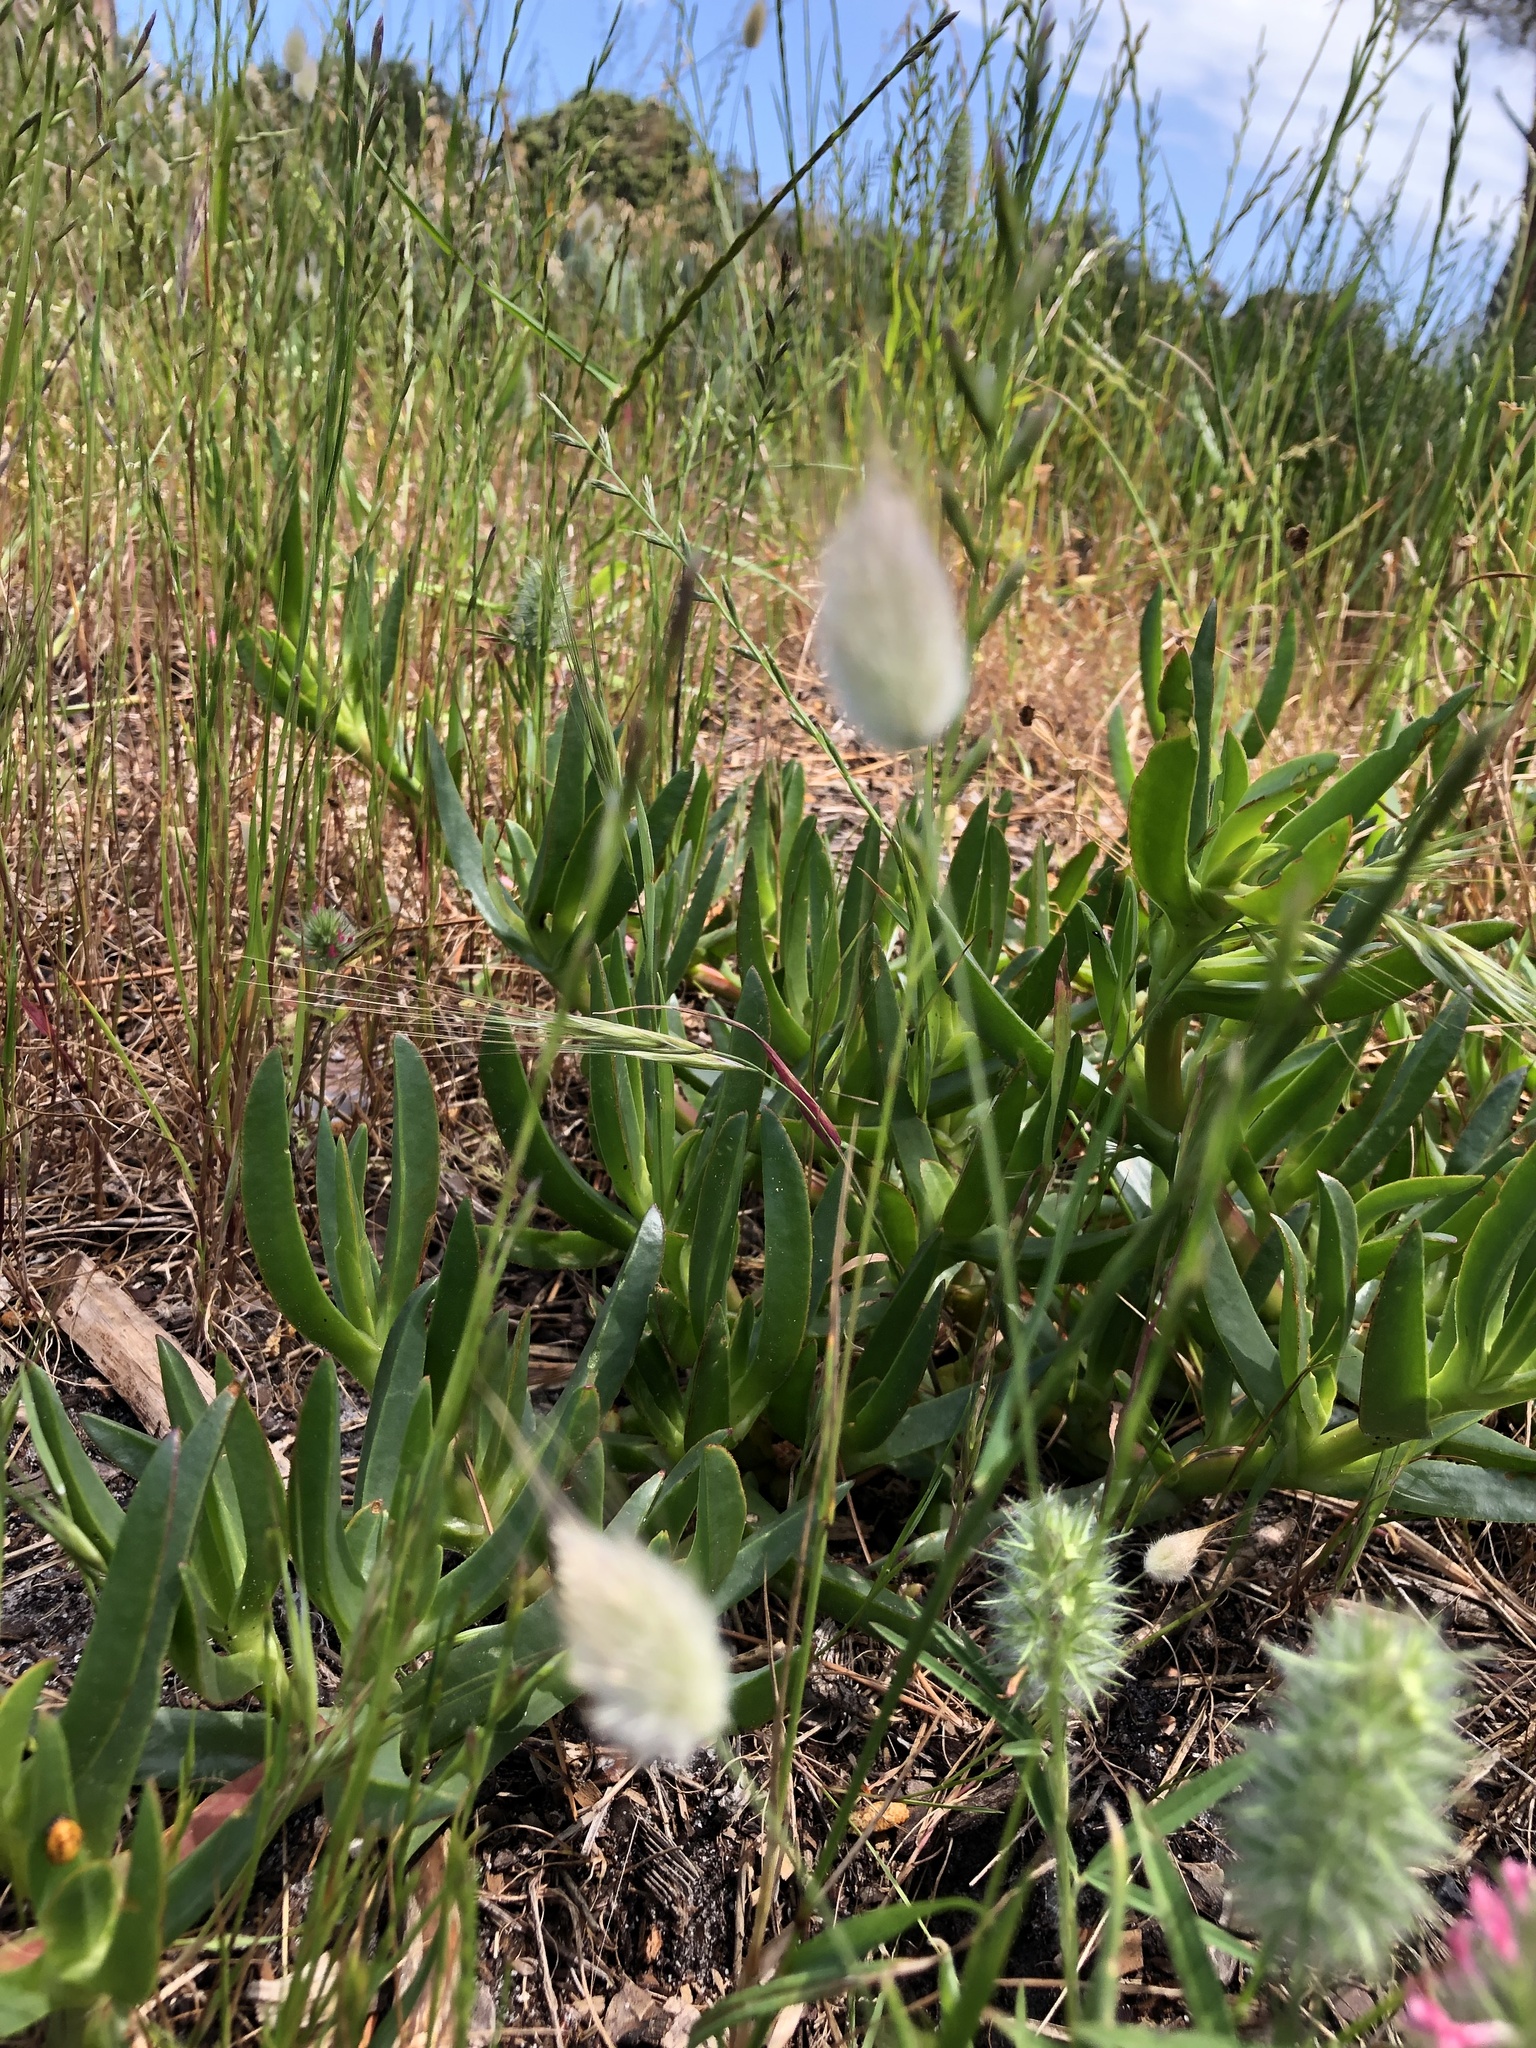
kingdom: Plantae
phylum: Tracheophyta
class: Liliopsida
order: Poales
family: Poaceae
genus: Lagurus
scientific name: Lagurus ovatus
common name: Hare's-tail
